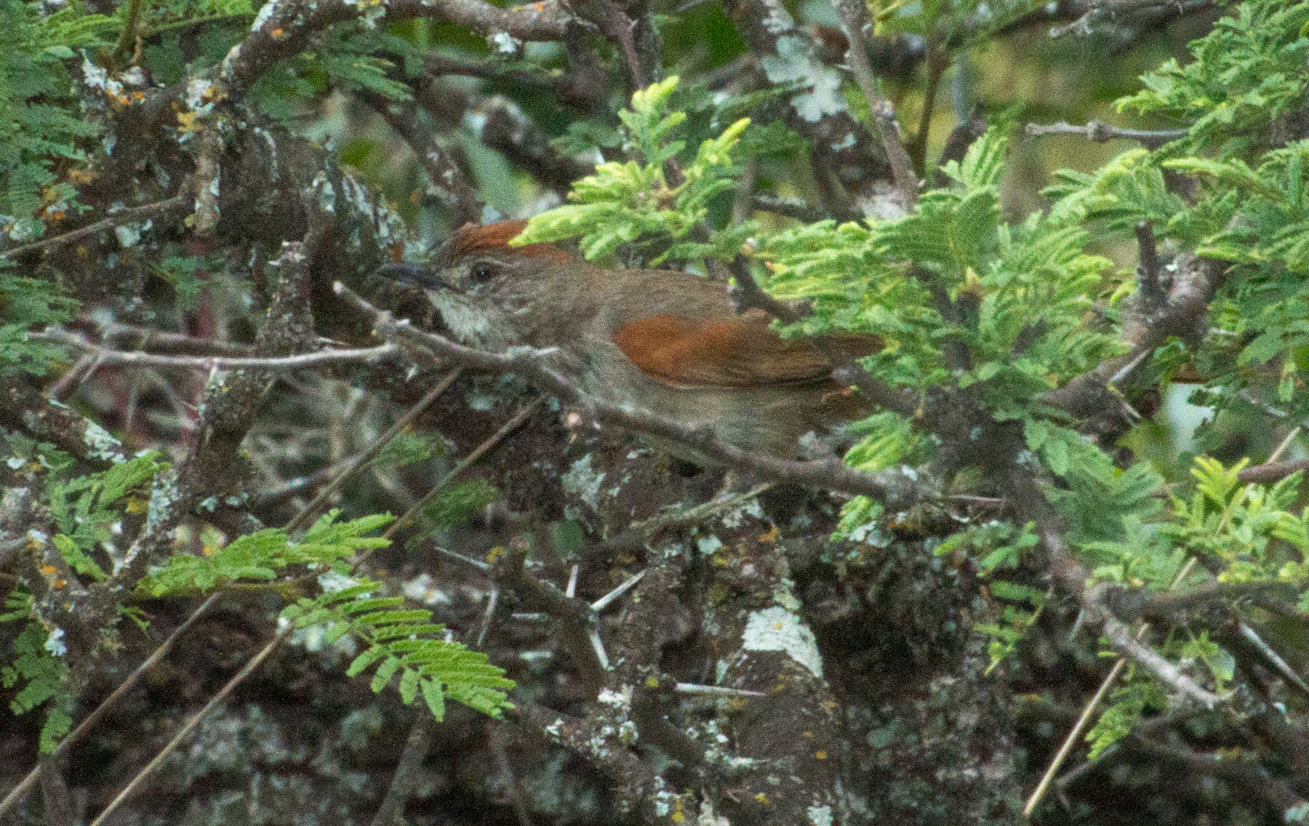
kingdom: Animalia
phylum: Chordata
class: Aves
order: Passeriformes
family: Furnariidae
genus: Synallaxis
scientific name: Synallaxis albescens
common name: Pale-breasted spinetail
